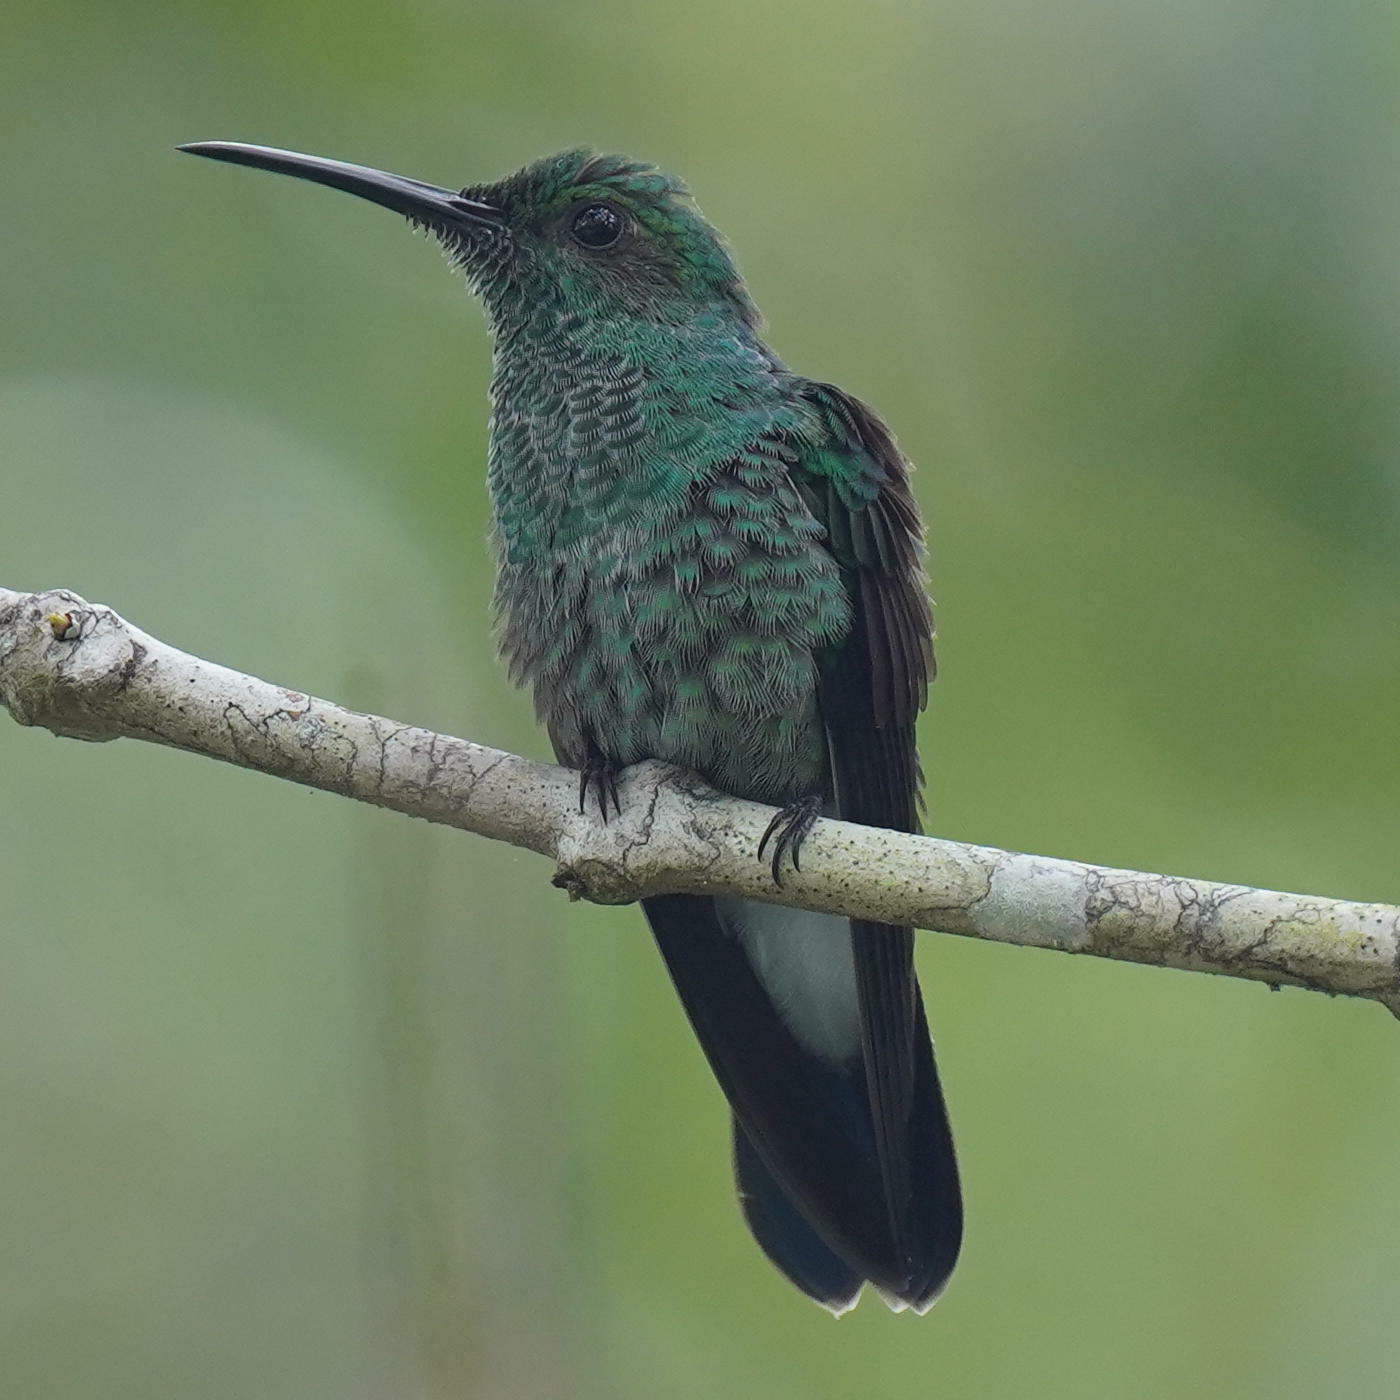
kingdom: Animalia
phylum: Chordata
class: Aves
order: Apodiformes
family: Trochilidae
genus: Chalybura
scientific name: Chalybura buffonii
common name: White-vented plumeleteer
